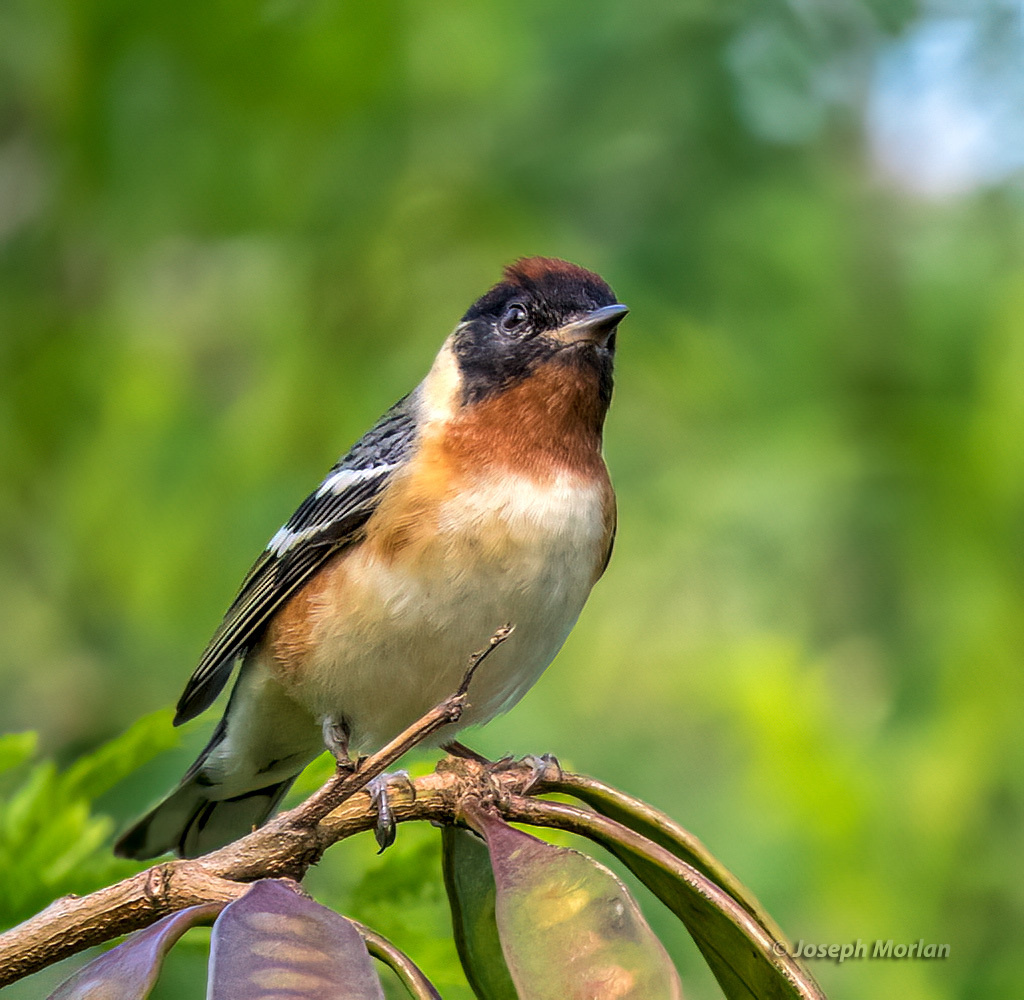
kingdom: Animalia
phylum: Chordata
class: Aves
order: Passeriformes
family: Parulidae
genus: Setophaga
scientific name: Setophaga castanea
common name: Bay-breasted warbler
